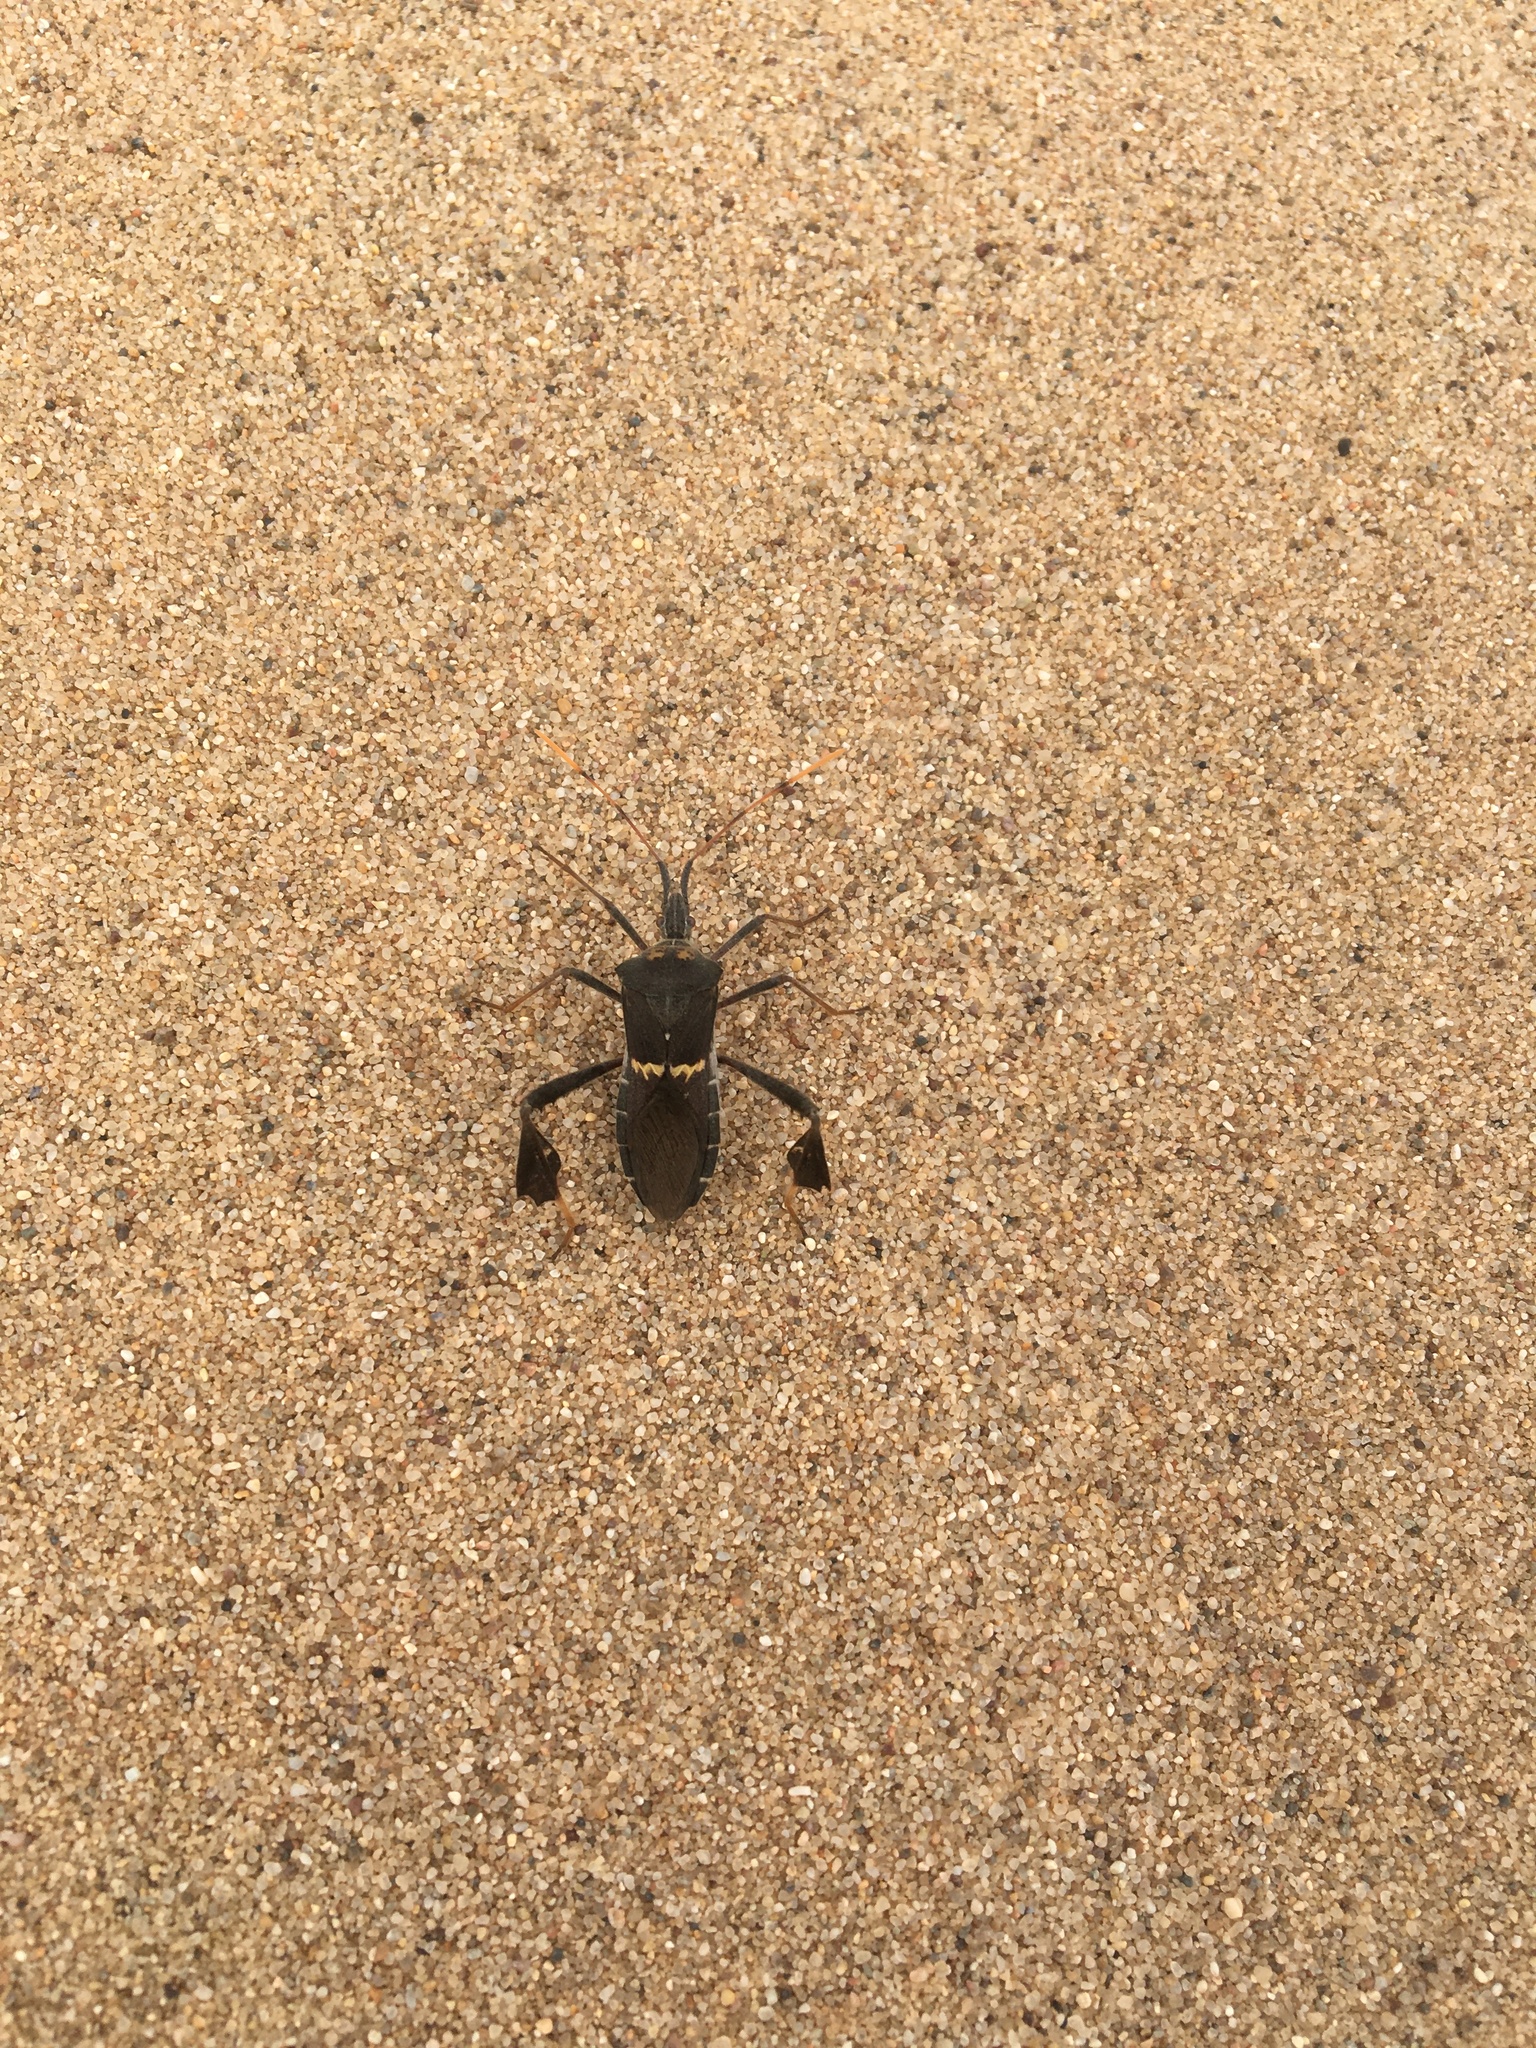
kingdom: Animalia
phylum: Arthropoda
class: Insecta
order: Hemiptera
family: Coreidae
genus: Leptoglossus
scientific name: Leptoglossus zonatus
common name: Large-legged bug
